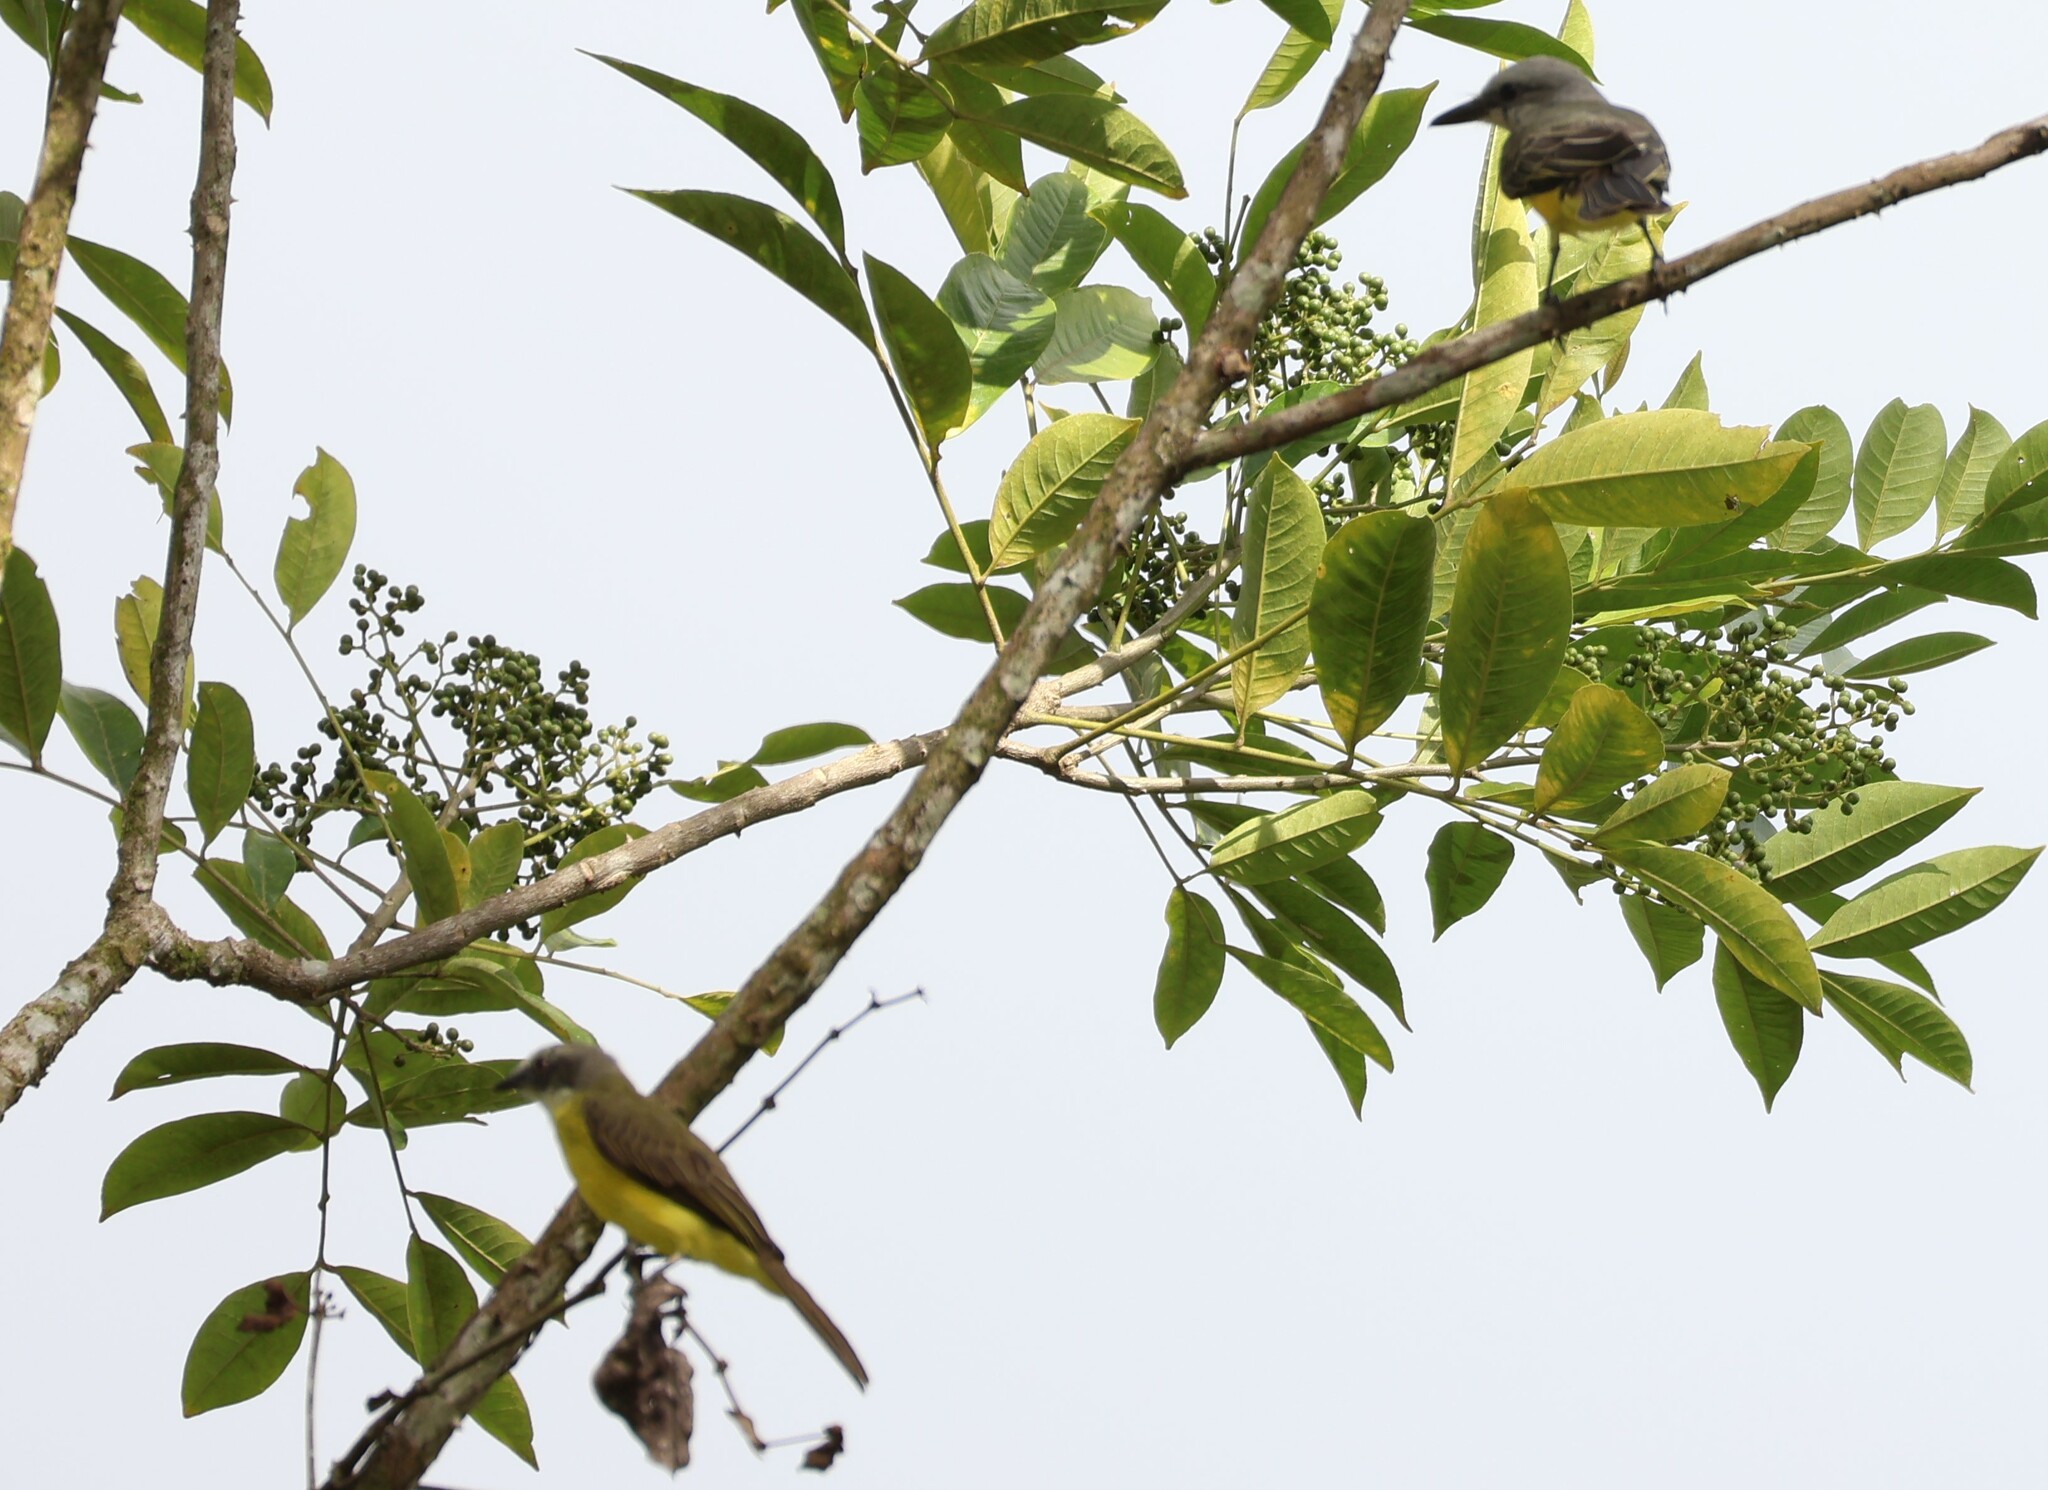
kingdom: Animalia
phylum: Chordata
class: Aves
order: Passeriformes
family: Tyrannidae
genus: Tyrannus
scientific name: Tyrannus melancholicus
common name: Tropical kingbird
